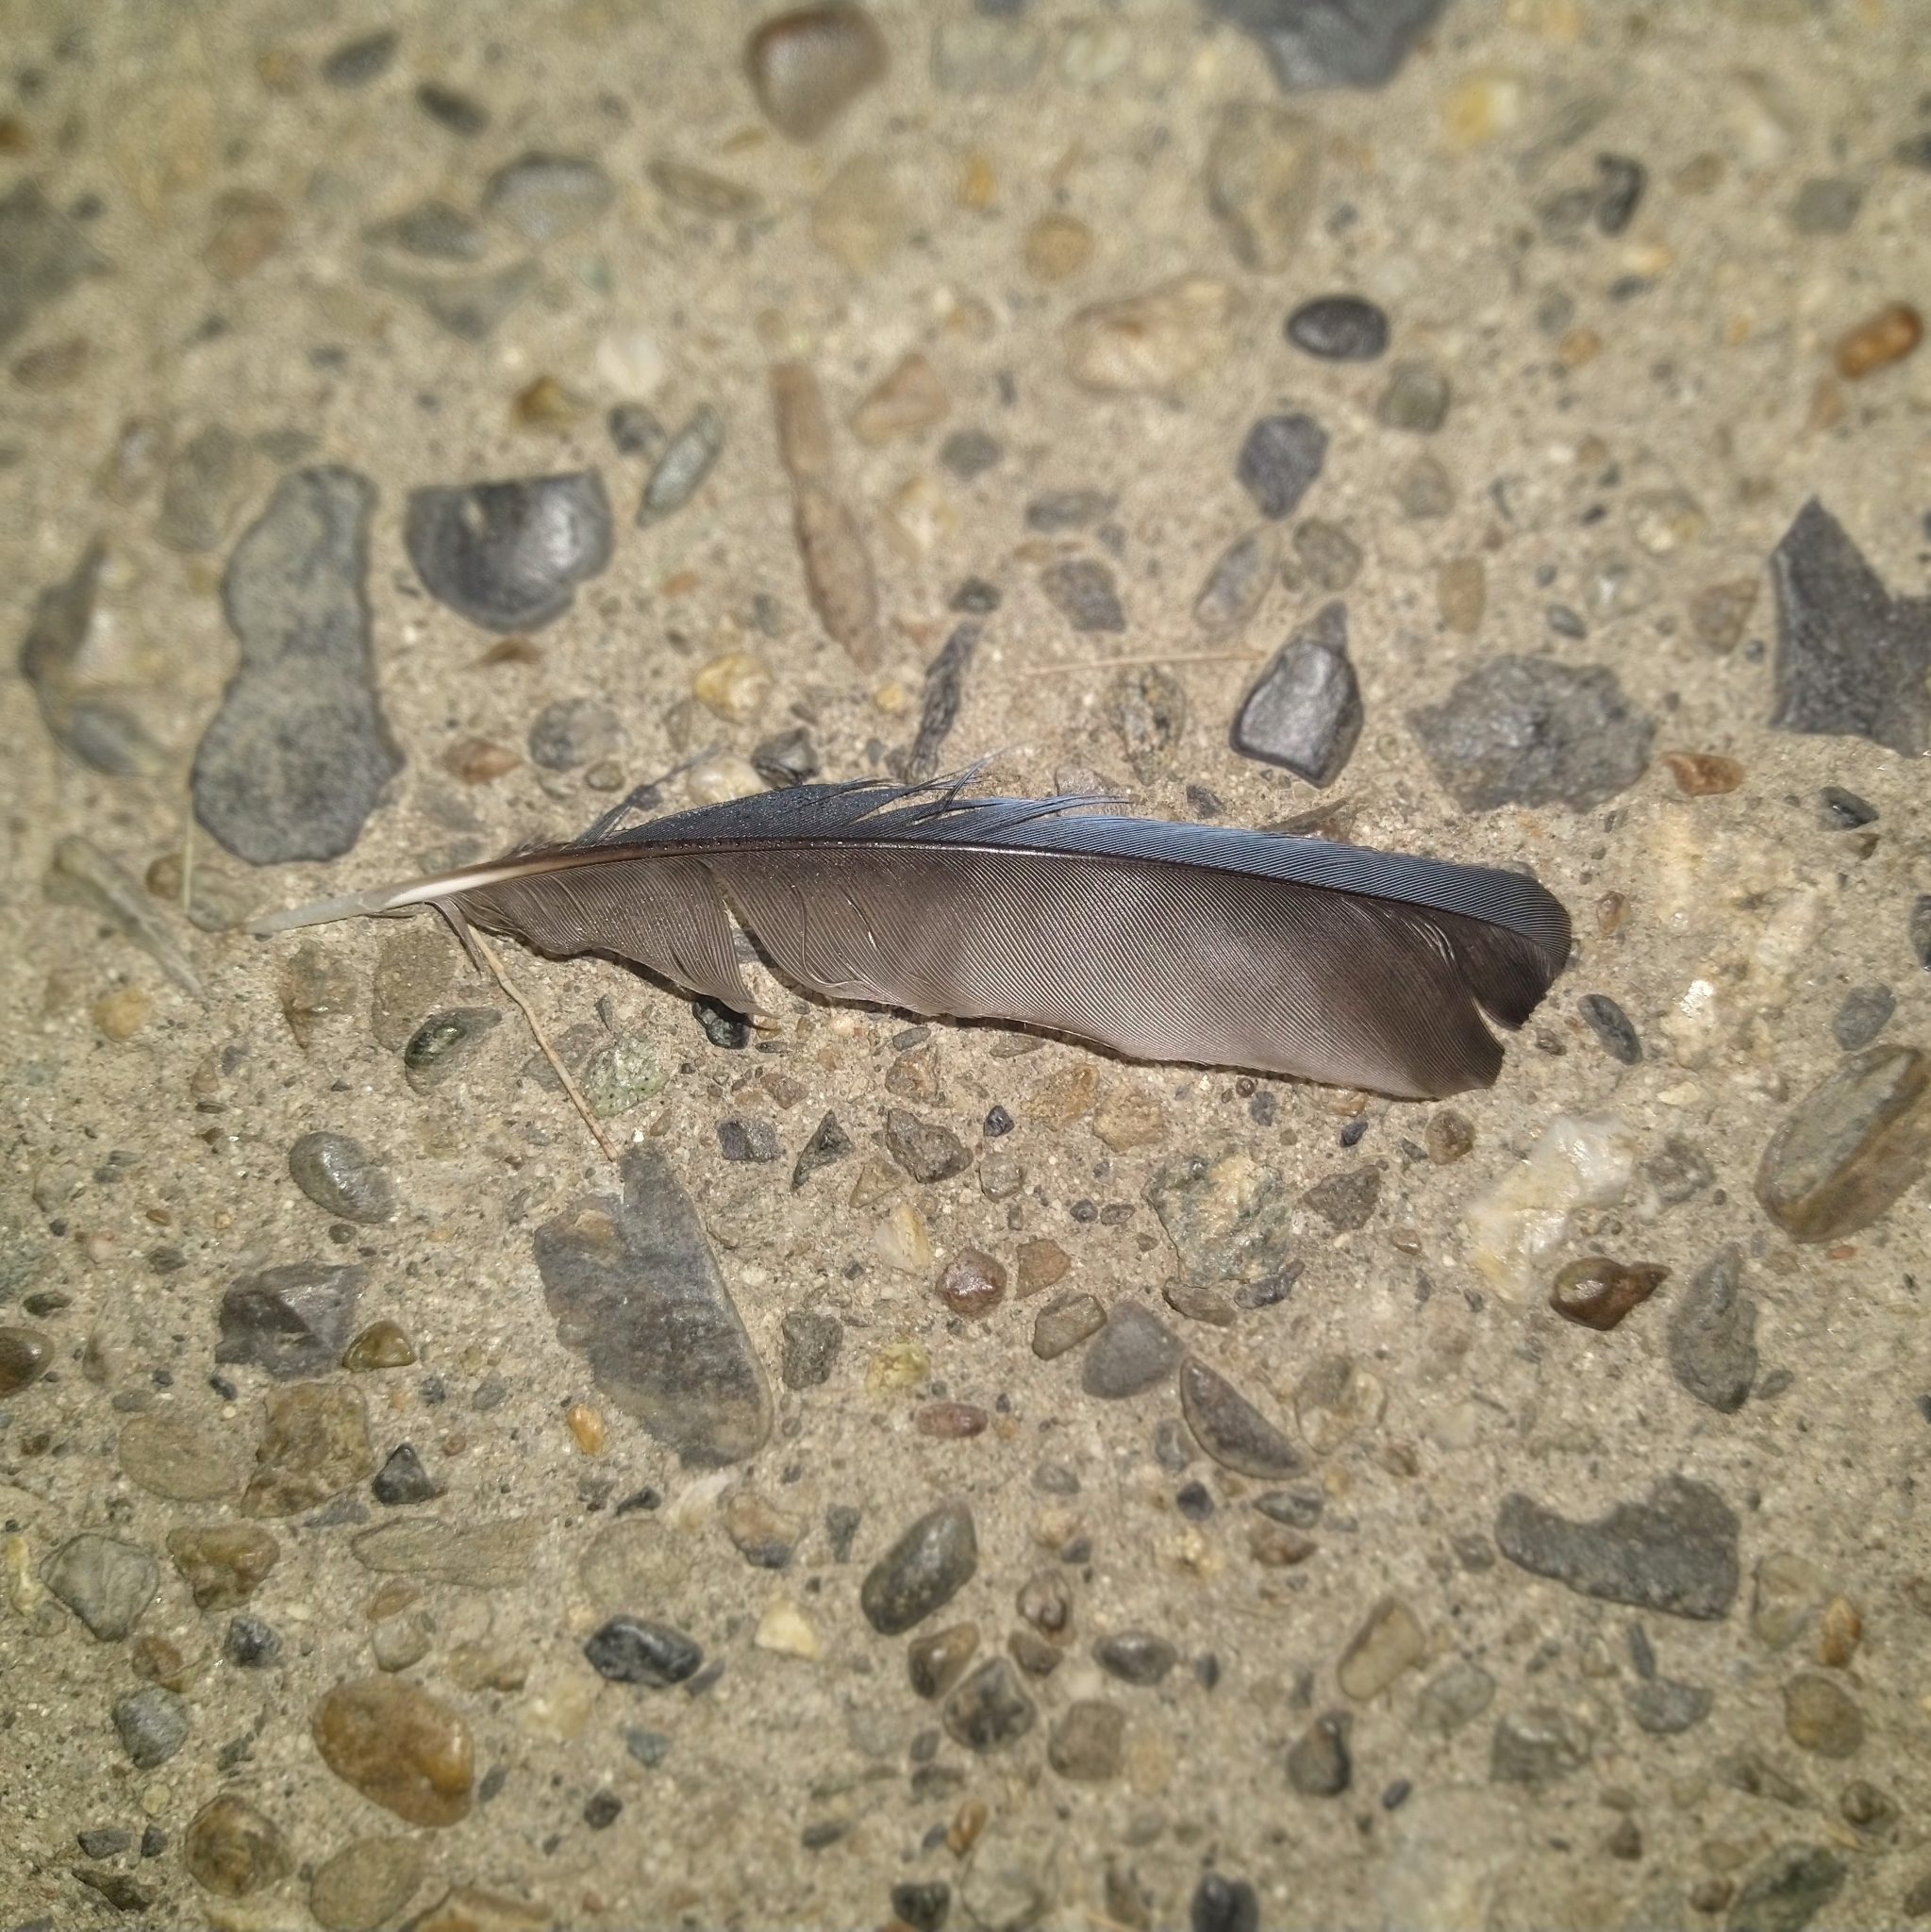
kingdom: Animalia
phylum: Chordata
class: Aves
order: Passeriformes
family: Corvidae
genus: Aphelocoma
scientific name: Aphelocoma californica
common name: California scrub-jay
